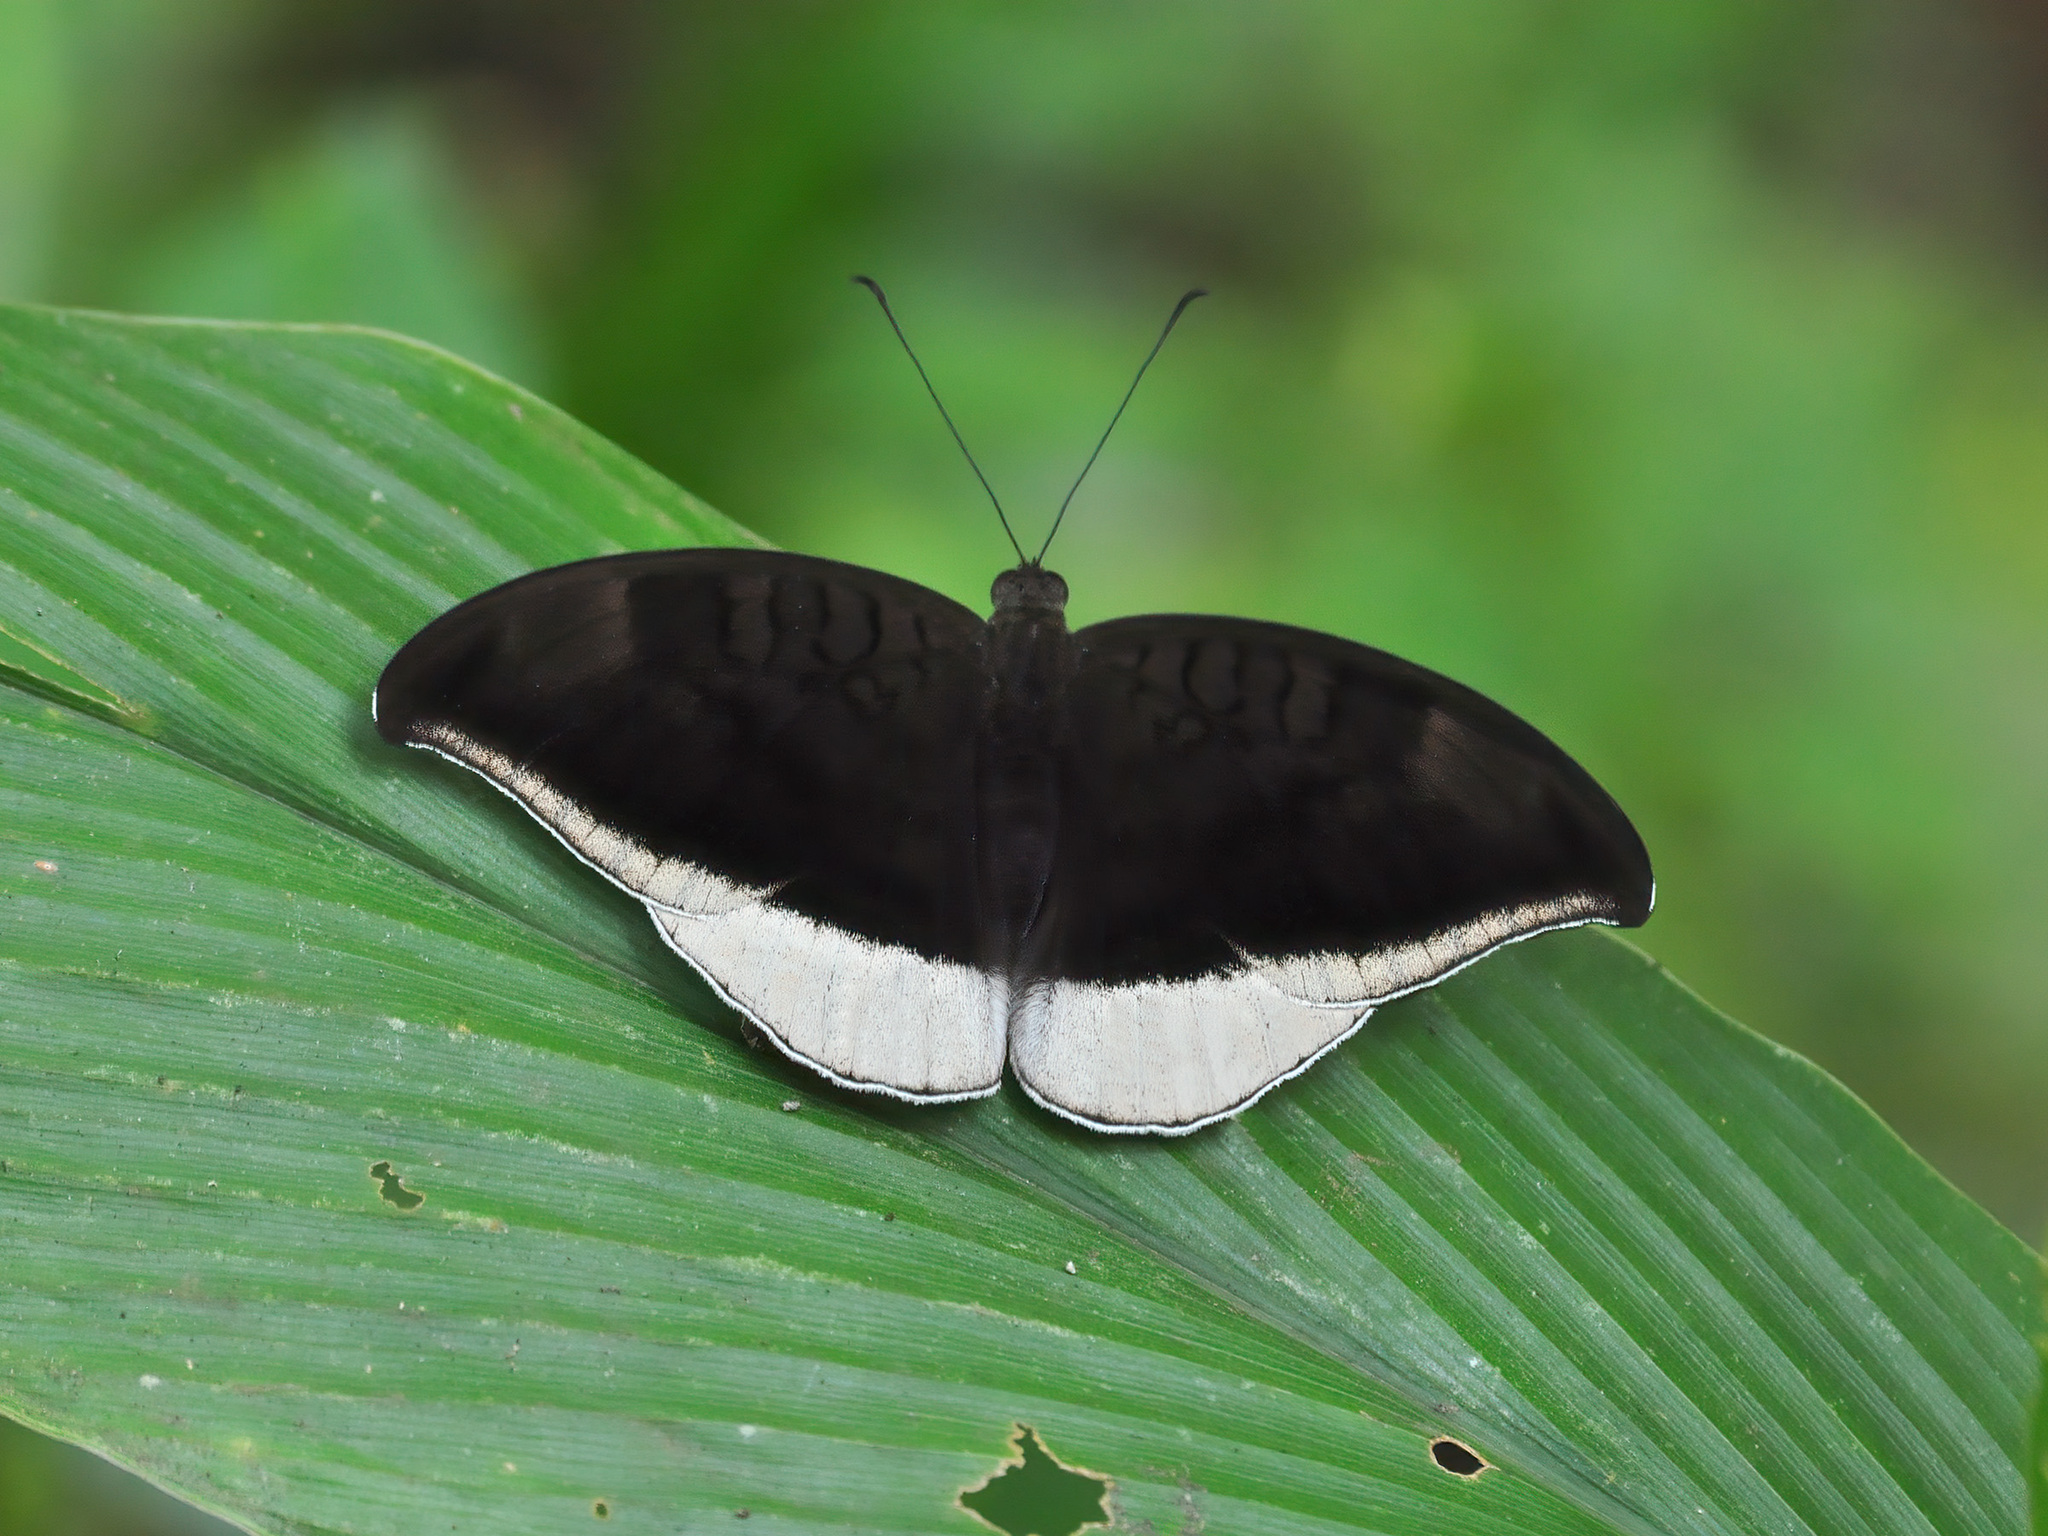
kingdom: Animalia
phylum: Arthropoda
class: Insecta
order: Lepidoptera
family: Nymphalidae
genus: Tanaecia
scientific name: Tanaecia lepidea
